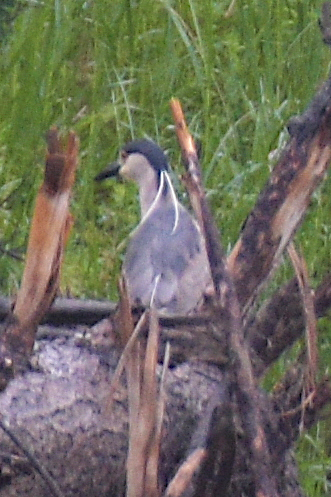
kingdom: Animalia
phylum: Chordata
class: Aves
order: Pelecaniformes
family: Ardeidae
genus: Nycticorax
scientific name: Nycticorax nycticorax
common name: Black-crowned night heron
